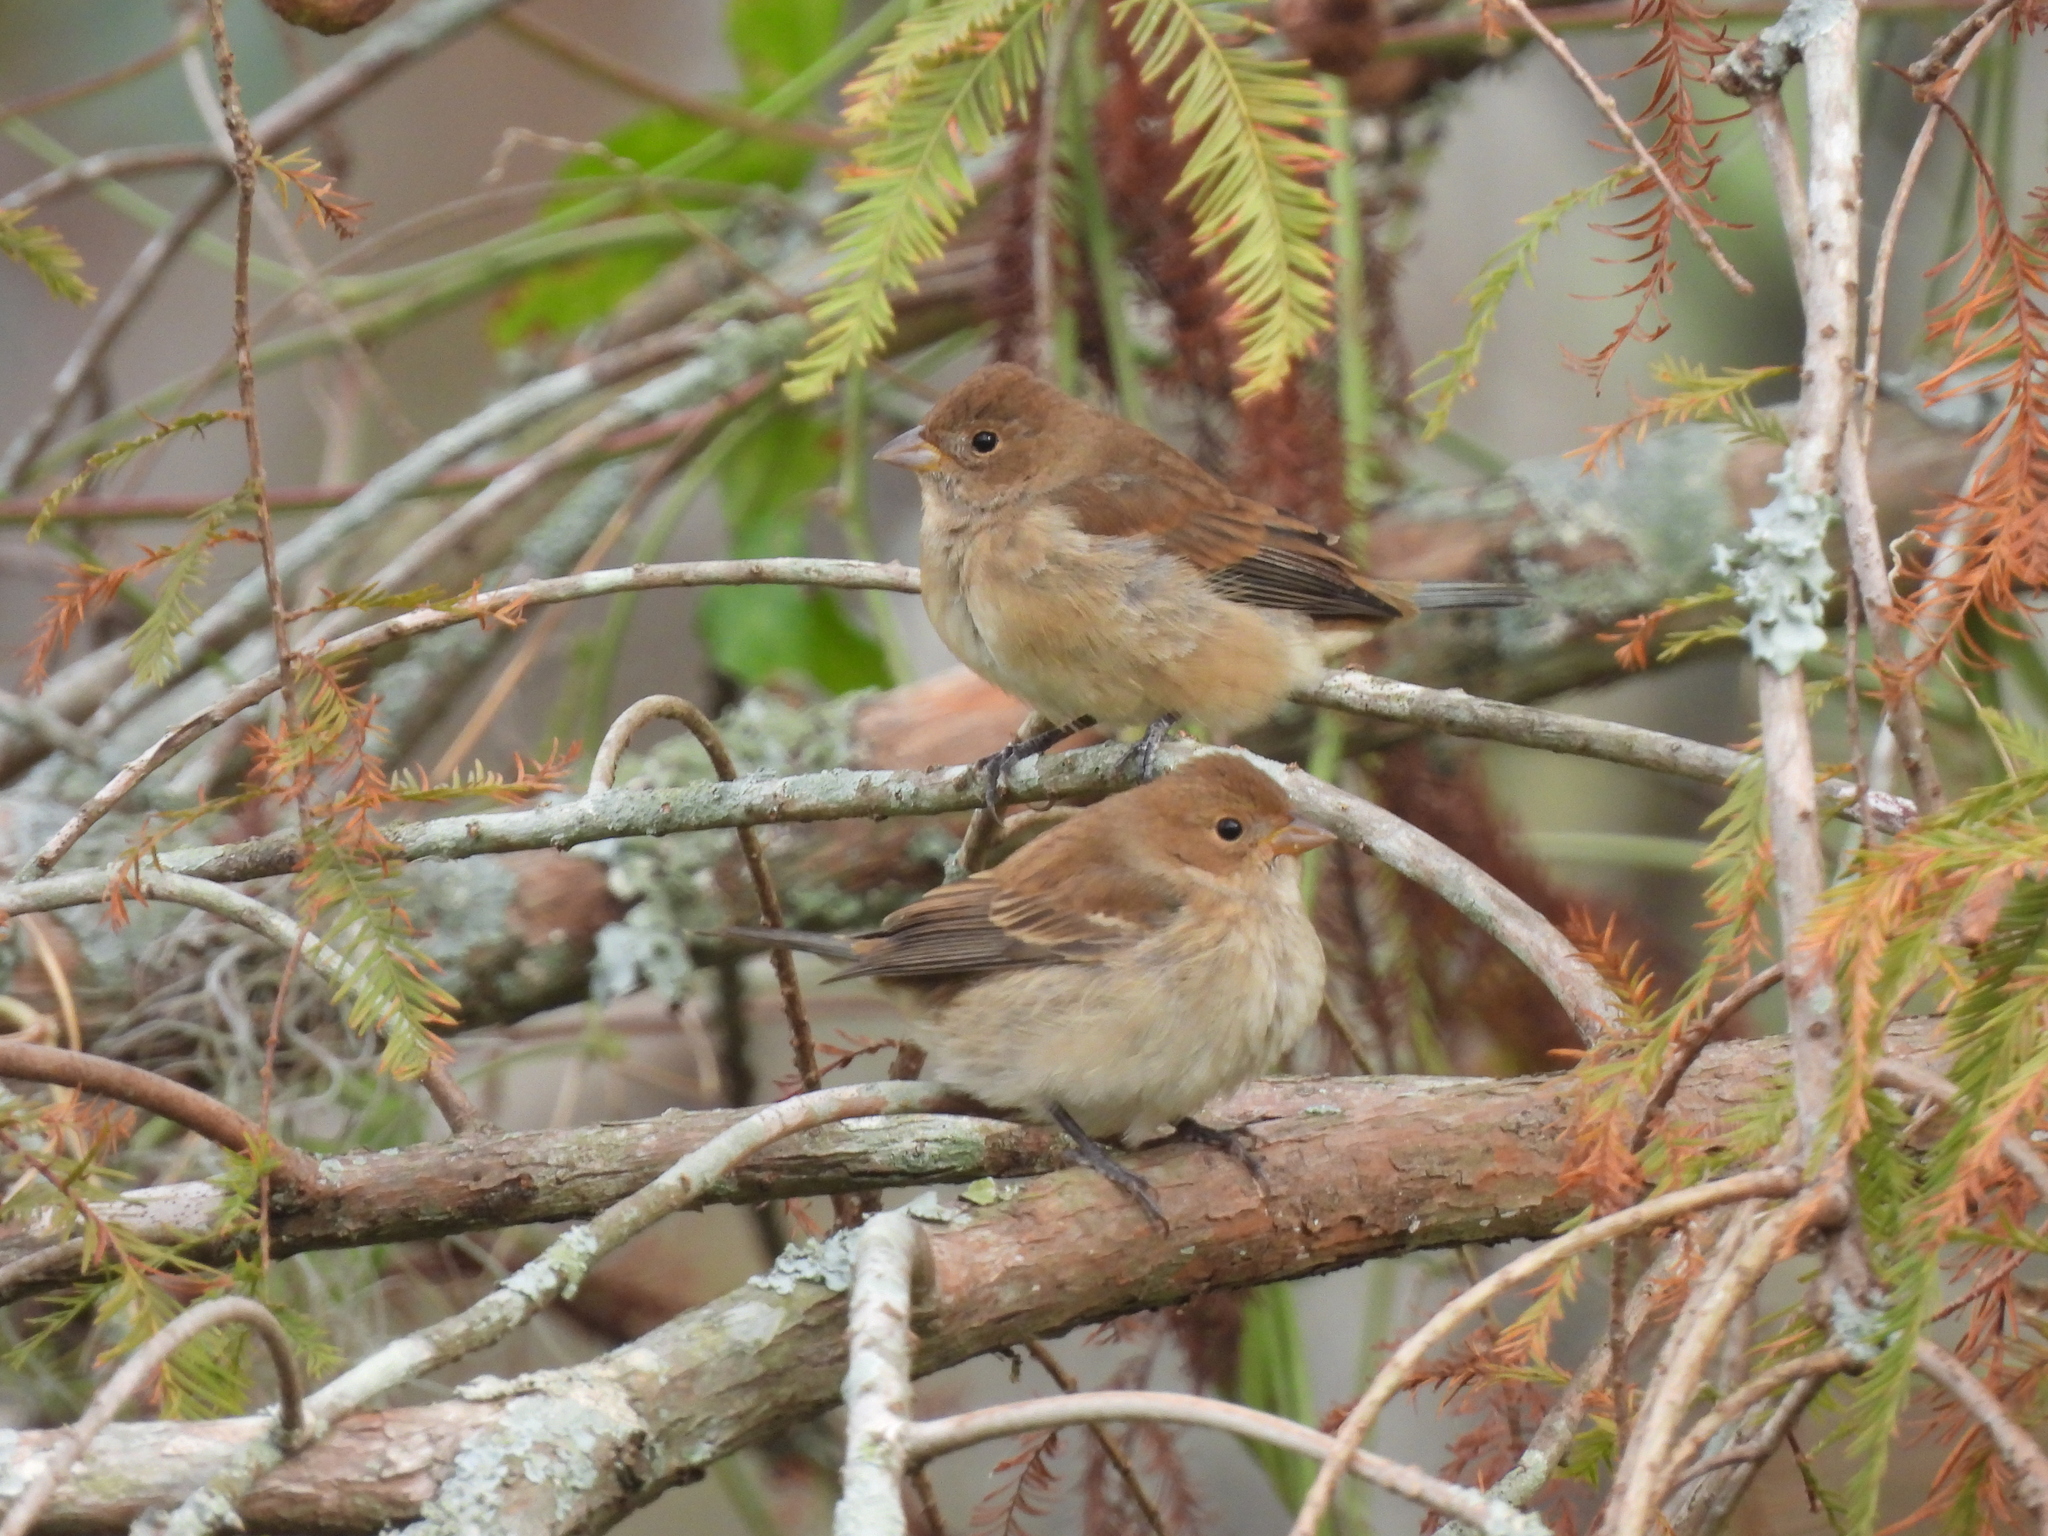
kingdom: Animalia
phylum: Chordata
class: Aves
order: Passeriformes
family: Cardinalidae
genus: Passerina
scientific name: Passerina cyanea
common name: Indigo bunting
